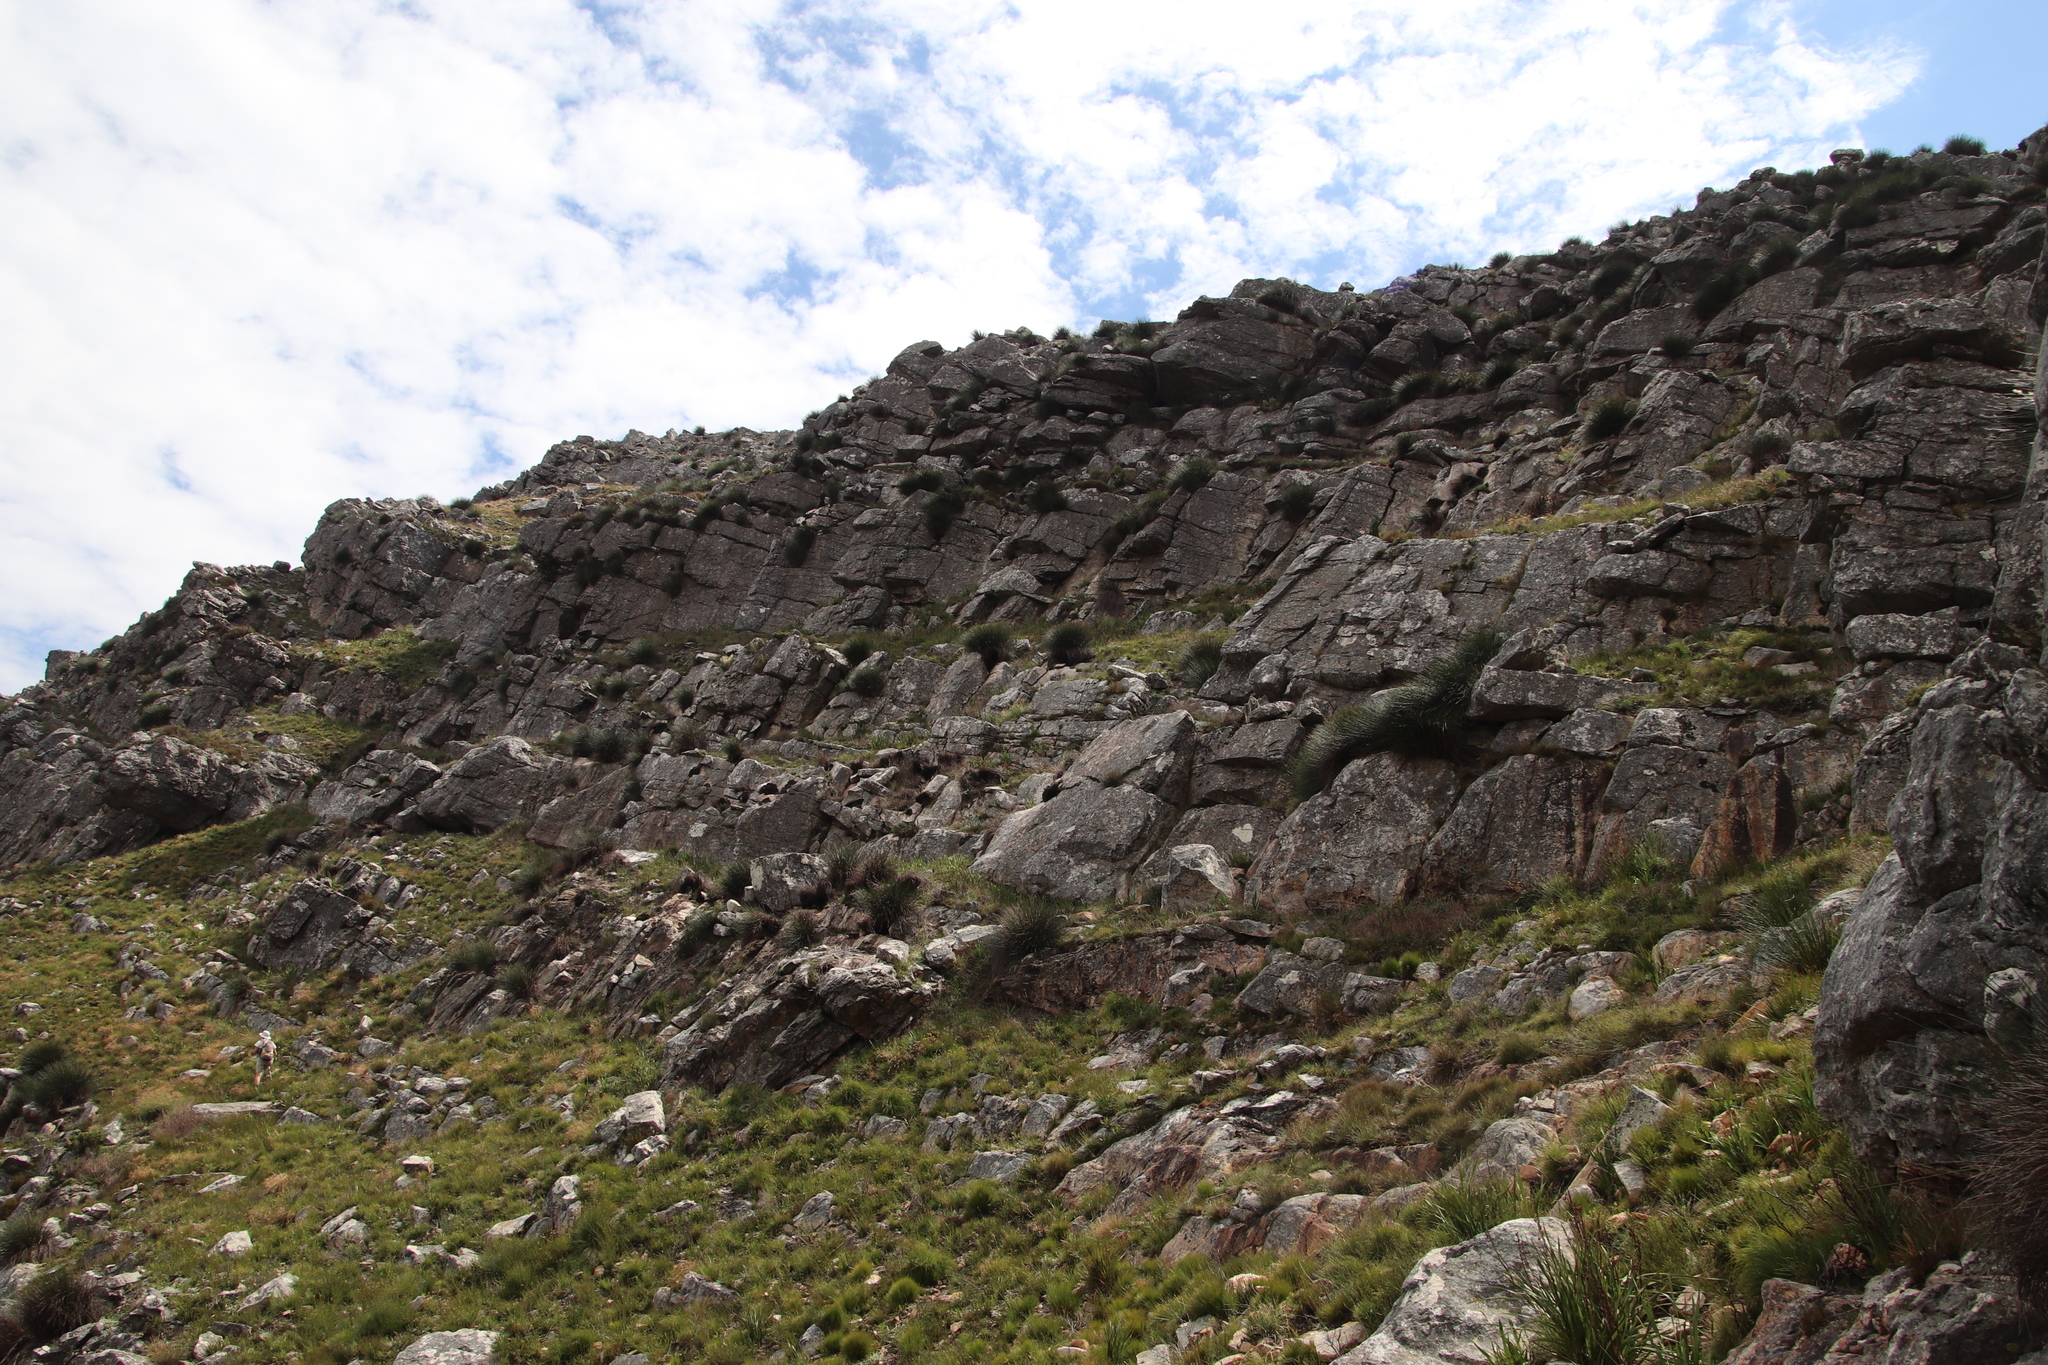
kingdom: Plantae
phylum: Tracheophyta
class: Liliopsida
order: Poales
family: Restionaceae
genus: Askidiosperma
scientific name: Askidiosperma andreaeanum
